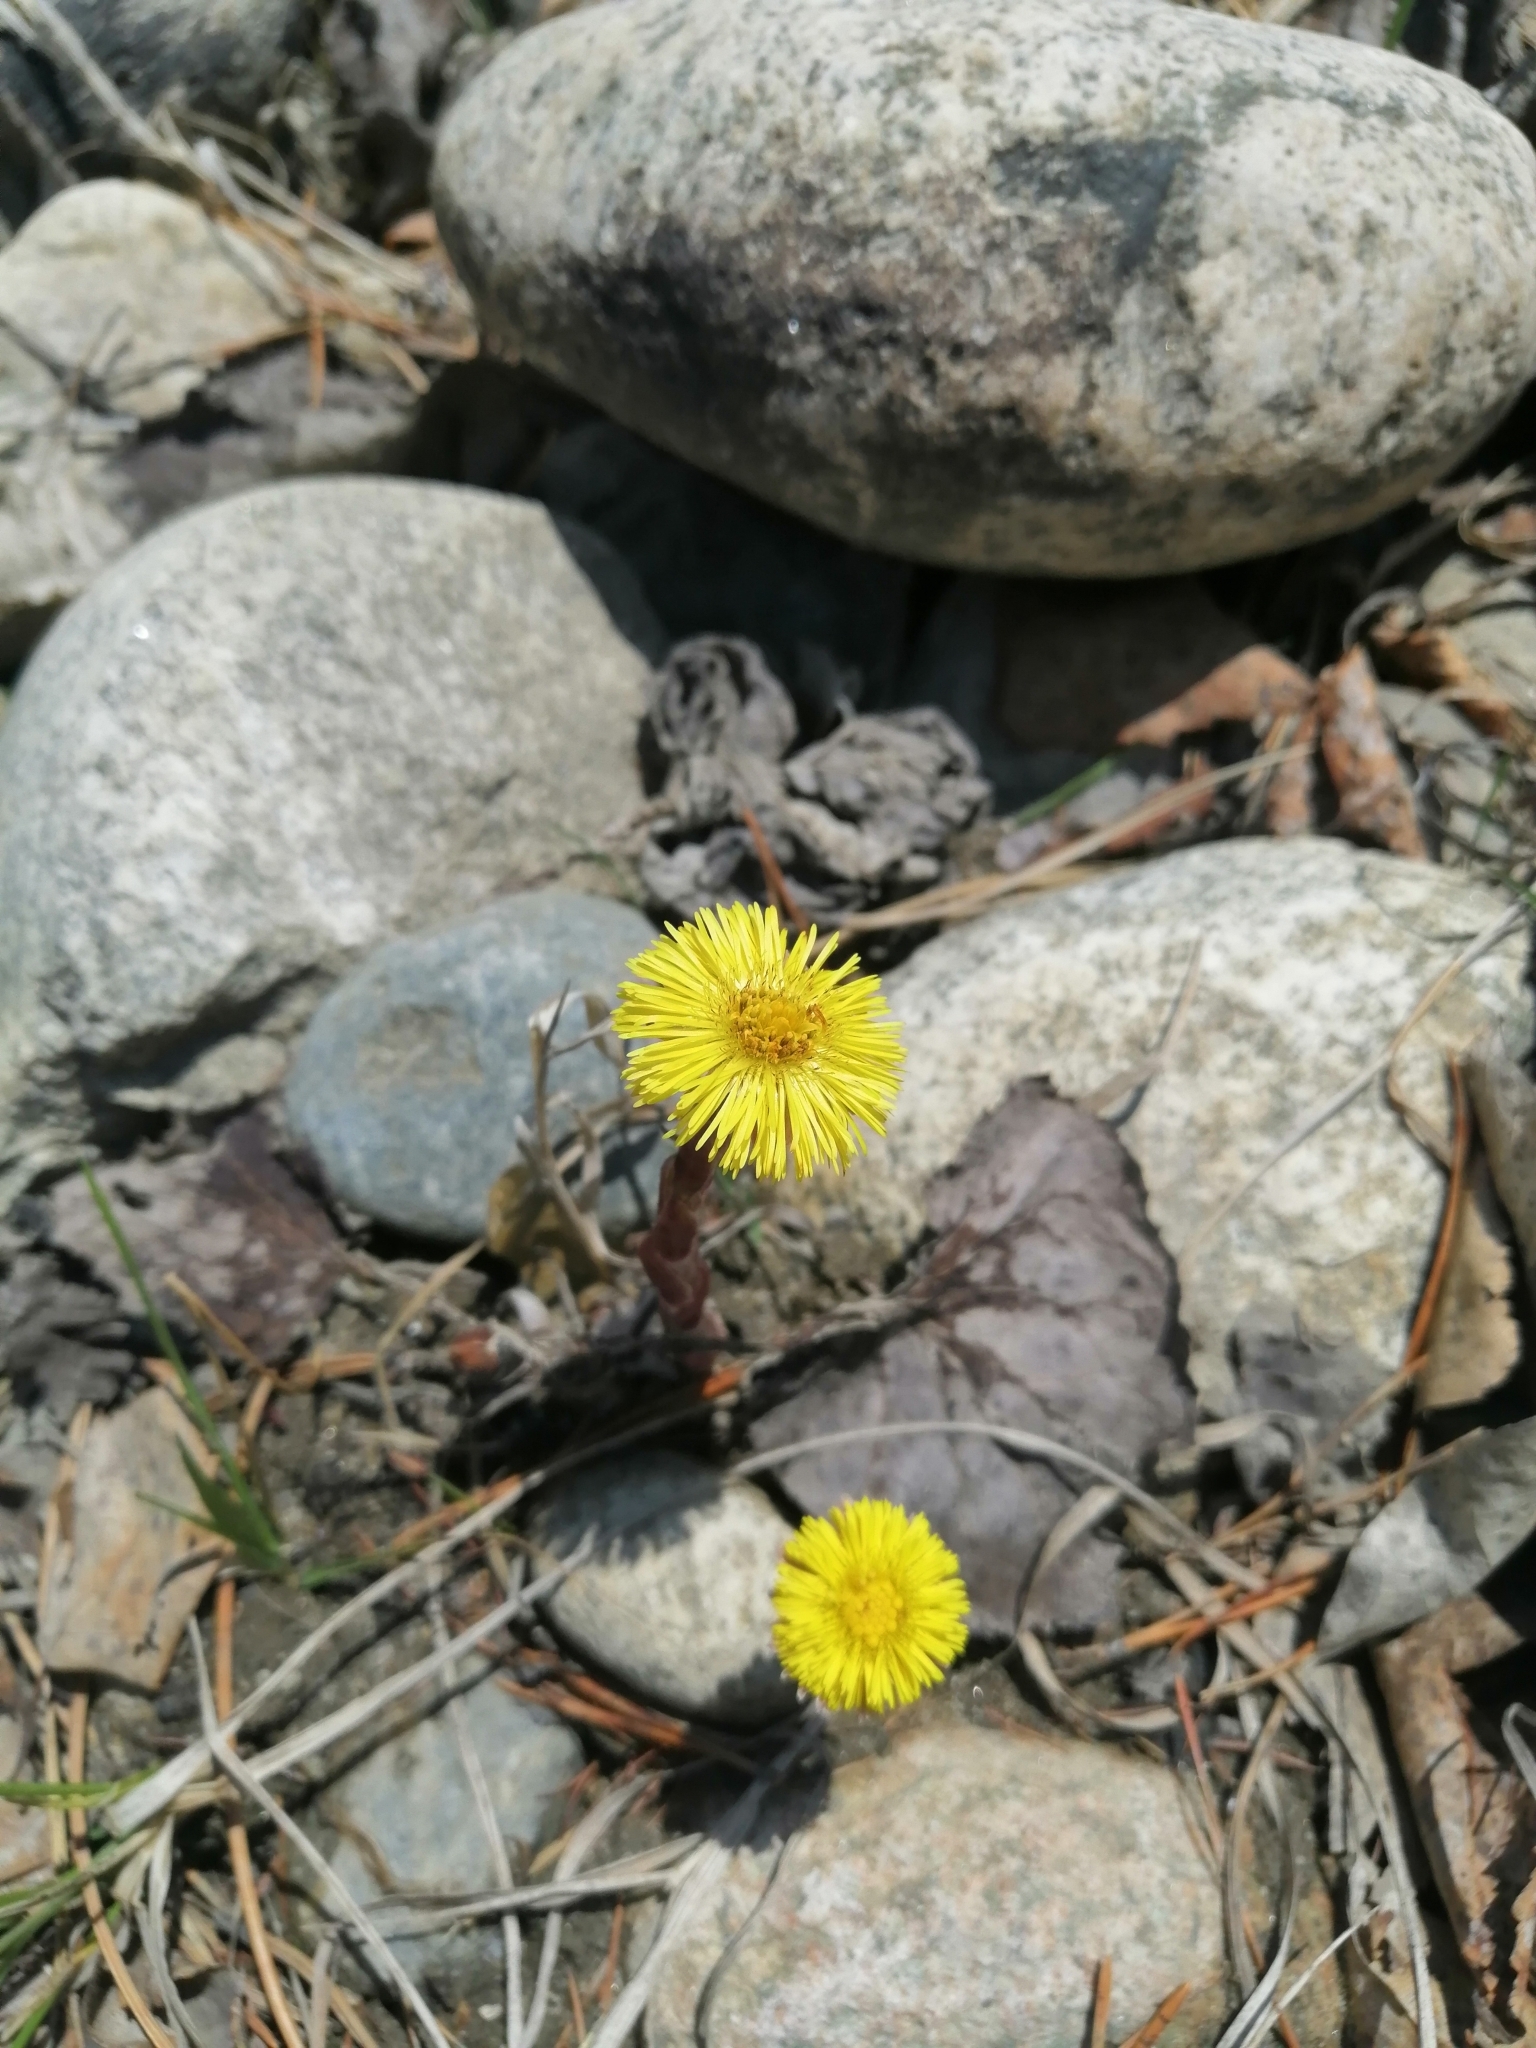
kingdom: Plantae
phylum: Tracheophyta
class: Magnoliopsida
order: Asterales
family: Asteraceae
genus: Tussilago
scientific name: Tussilago farfara
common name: Coltsfoot
